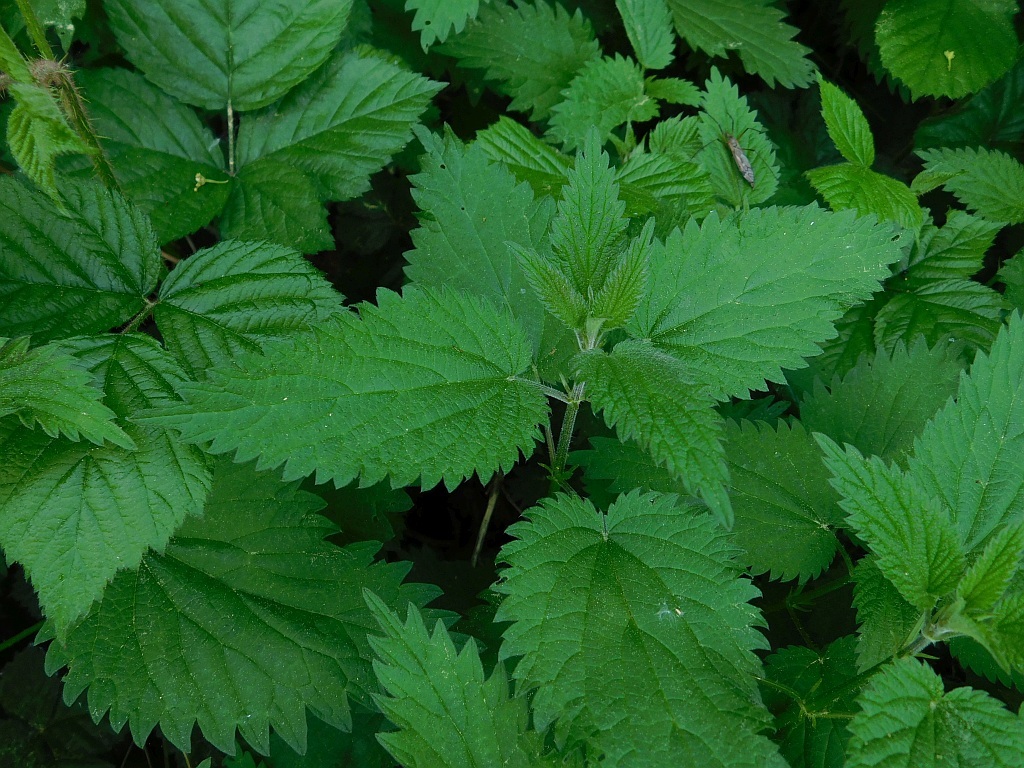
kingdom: Plantae
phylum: Tracheophyta
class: Magnoliopsida
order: Rosales
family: Urticaceae
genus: Urtica
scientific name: Urtica dioica
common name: Common nettle
